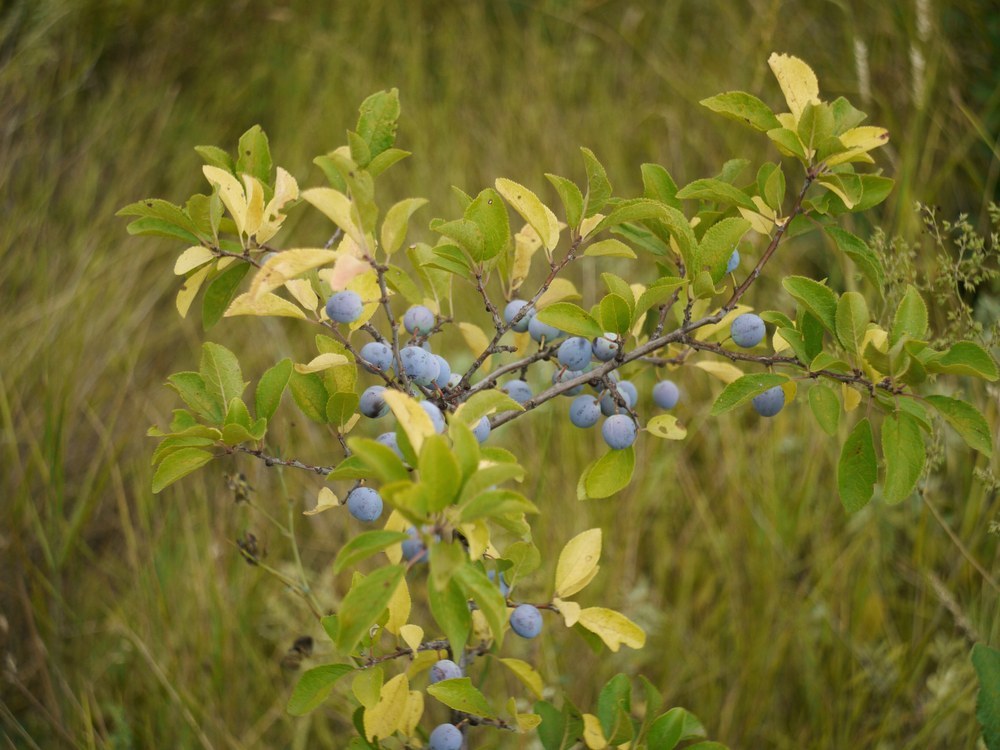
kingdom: Plantae
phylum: Tracheophyta
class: Magnoliopsida
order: Rosales
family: Rosaceae
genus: Prunus
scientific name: Prunus spinosa
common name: Blackthorn
